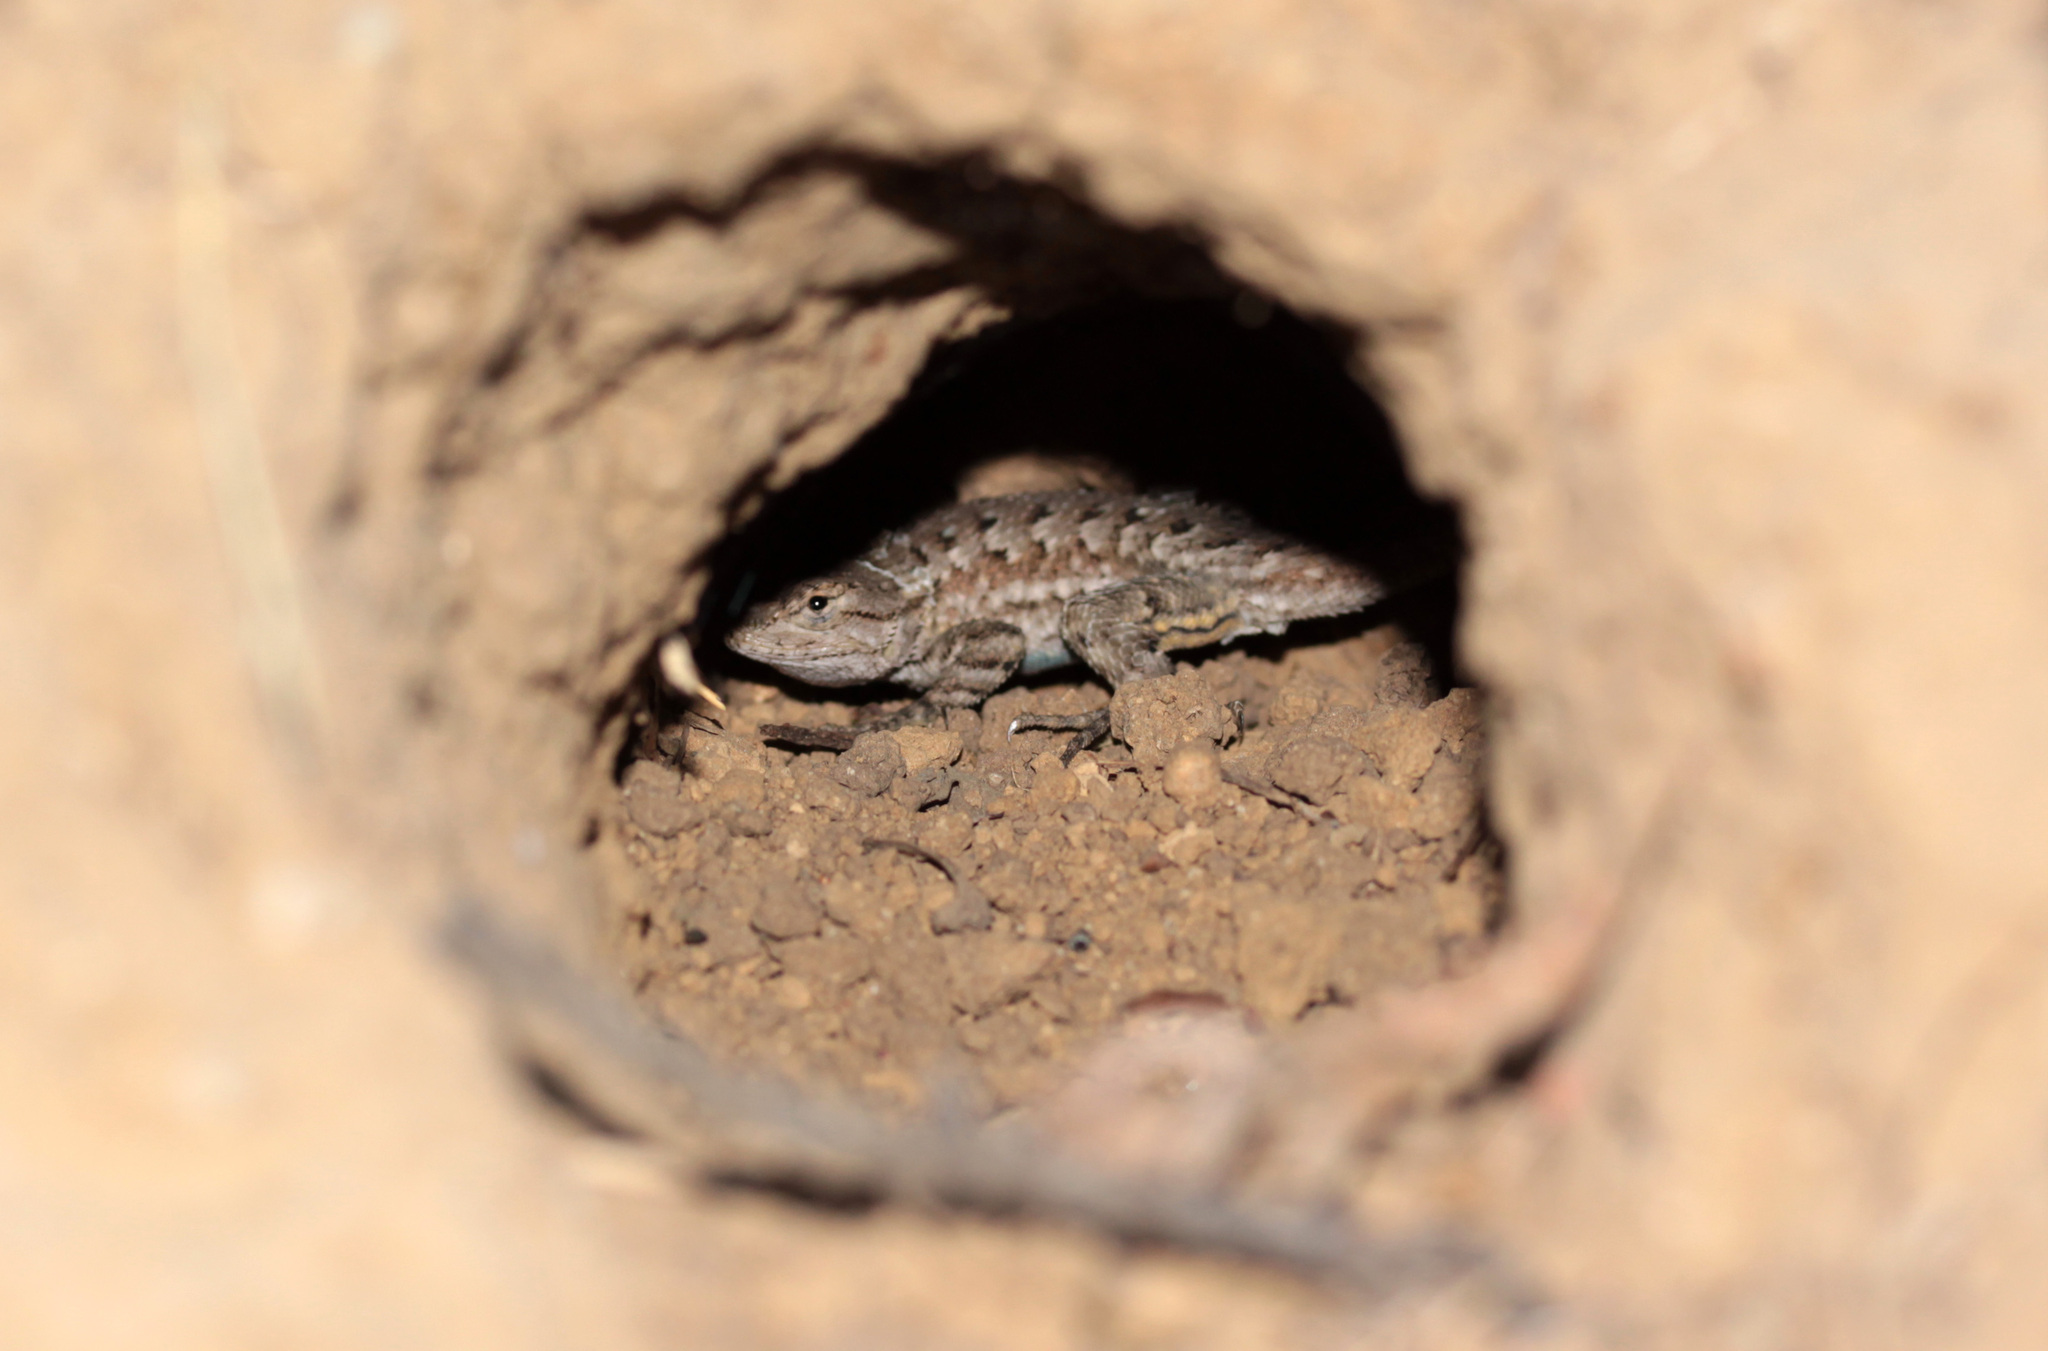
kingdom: Animalia
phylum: Chordata
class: Squamata
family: Phrynosomatidae
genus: Sceloporus
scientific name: Sceloporus occidentalis
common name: Western fence lizard
